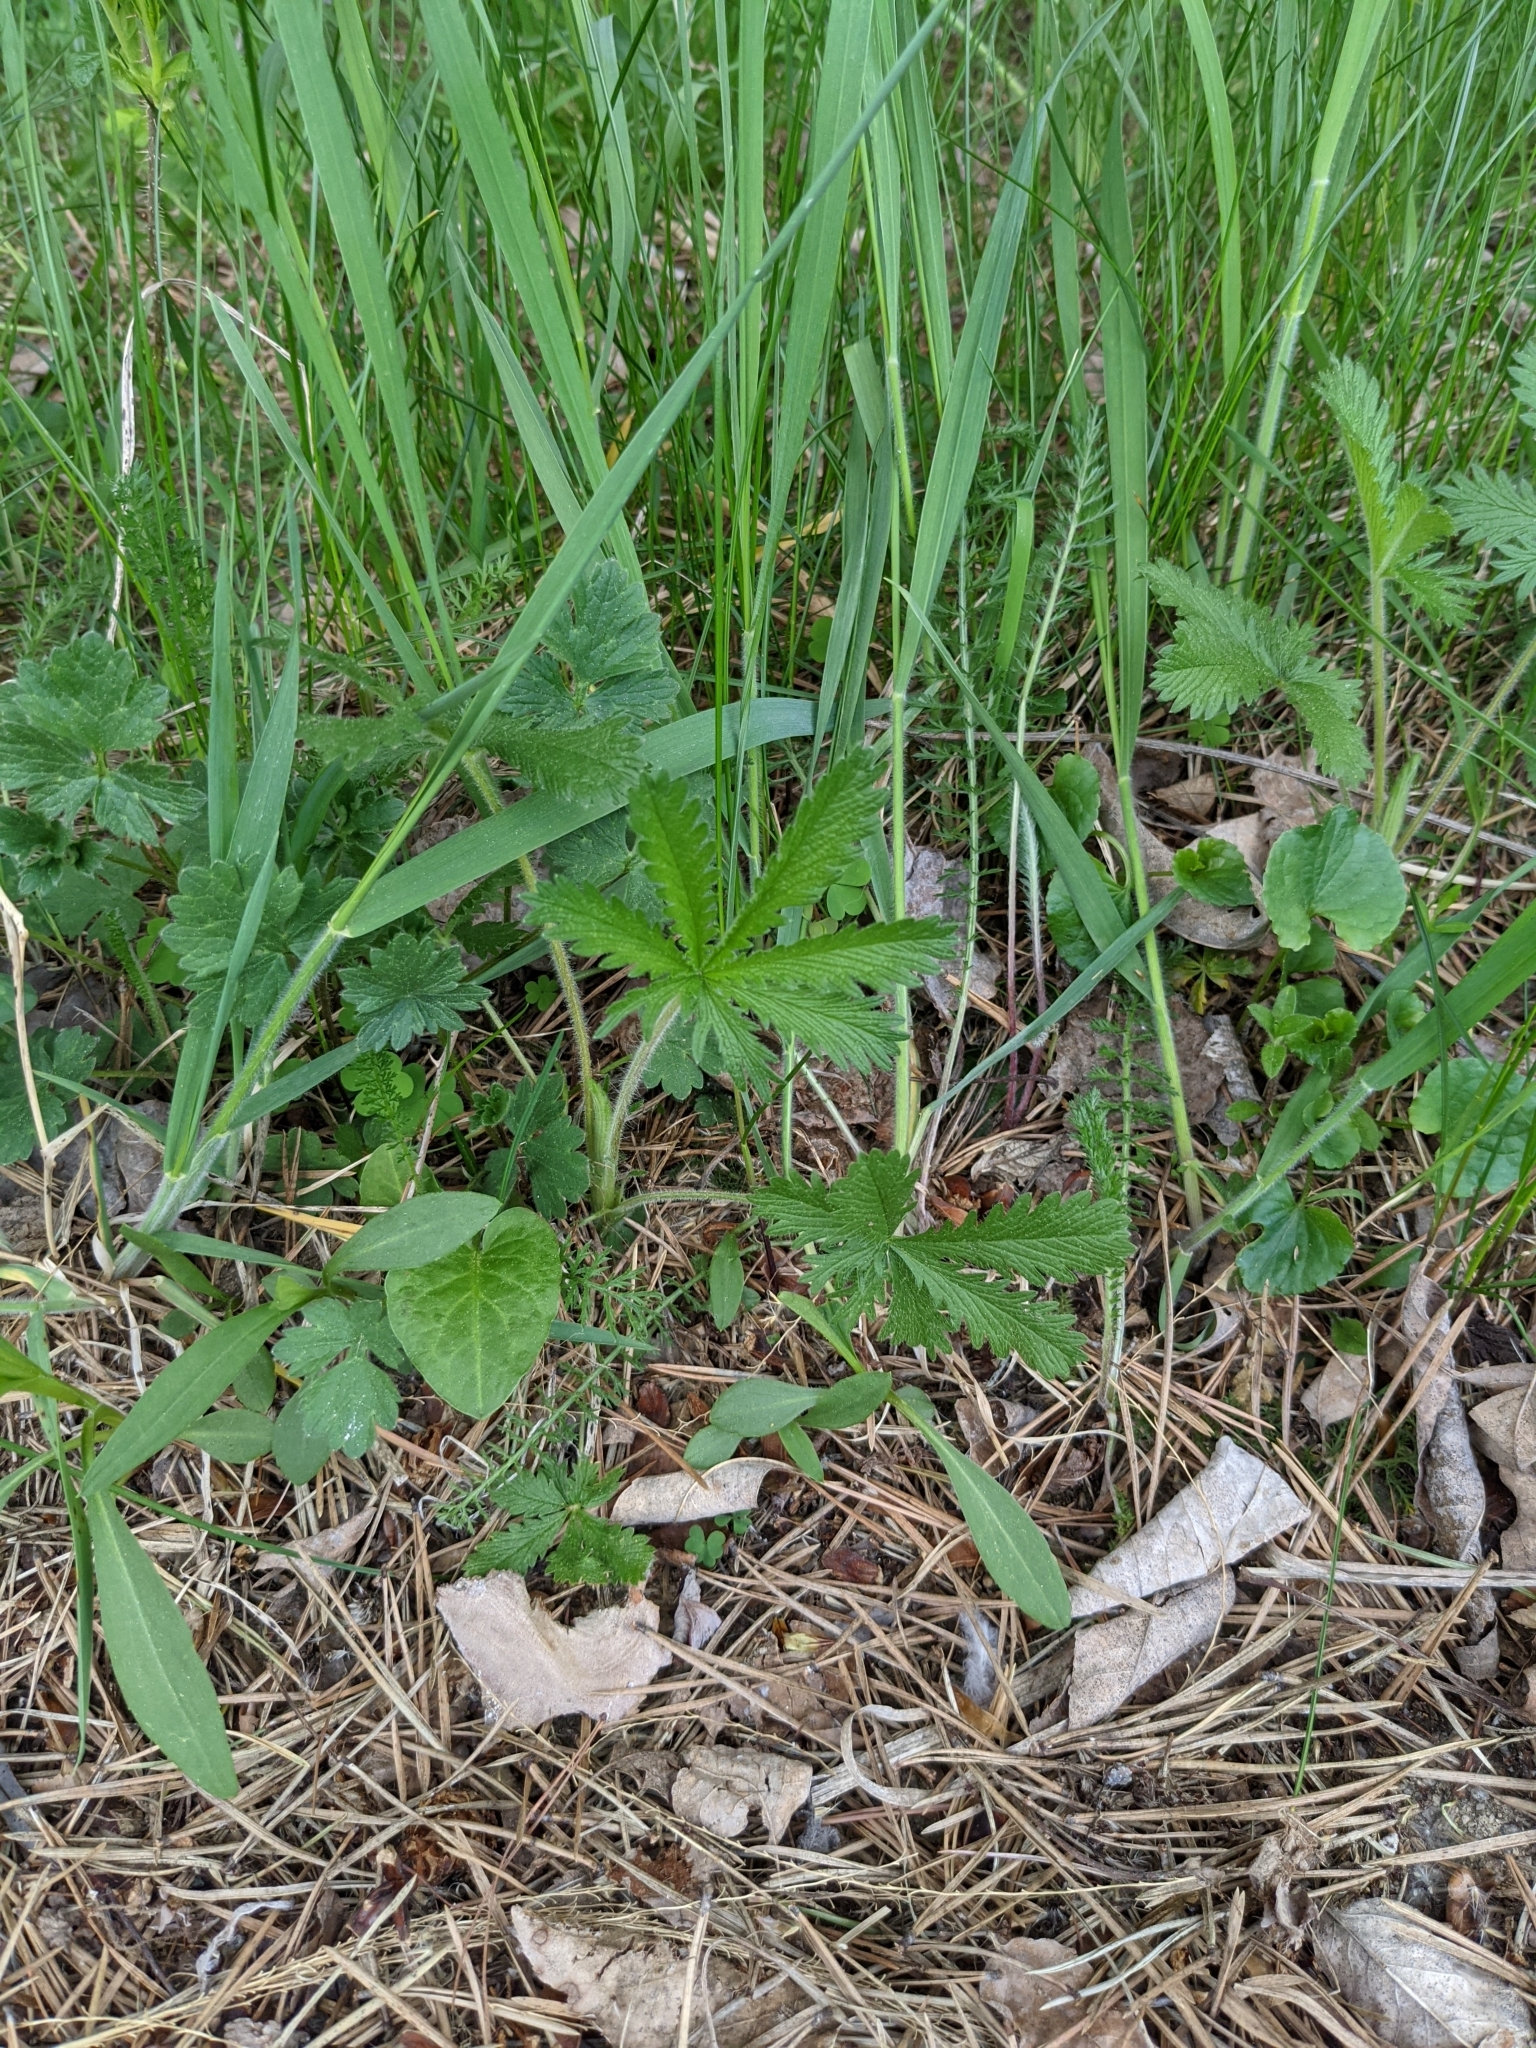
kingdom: Plantae
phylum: Tracheophyta
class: Magnoliopsida
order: Rosales
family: Rosaceae
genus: Potentilla
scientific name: Potentilla recta
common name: Sulphur cinquefoil
